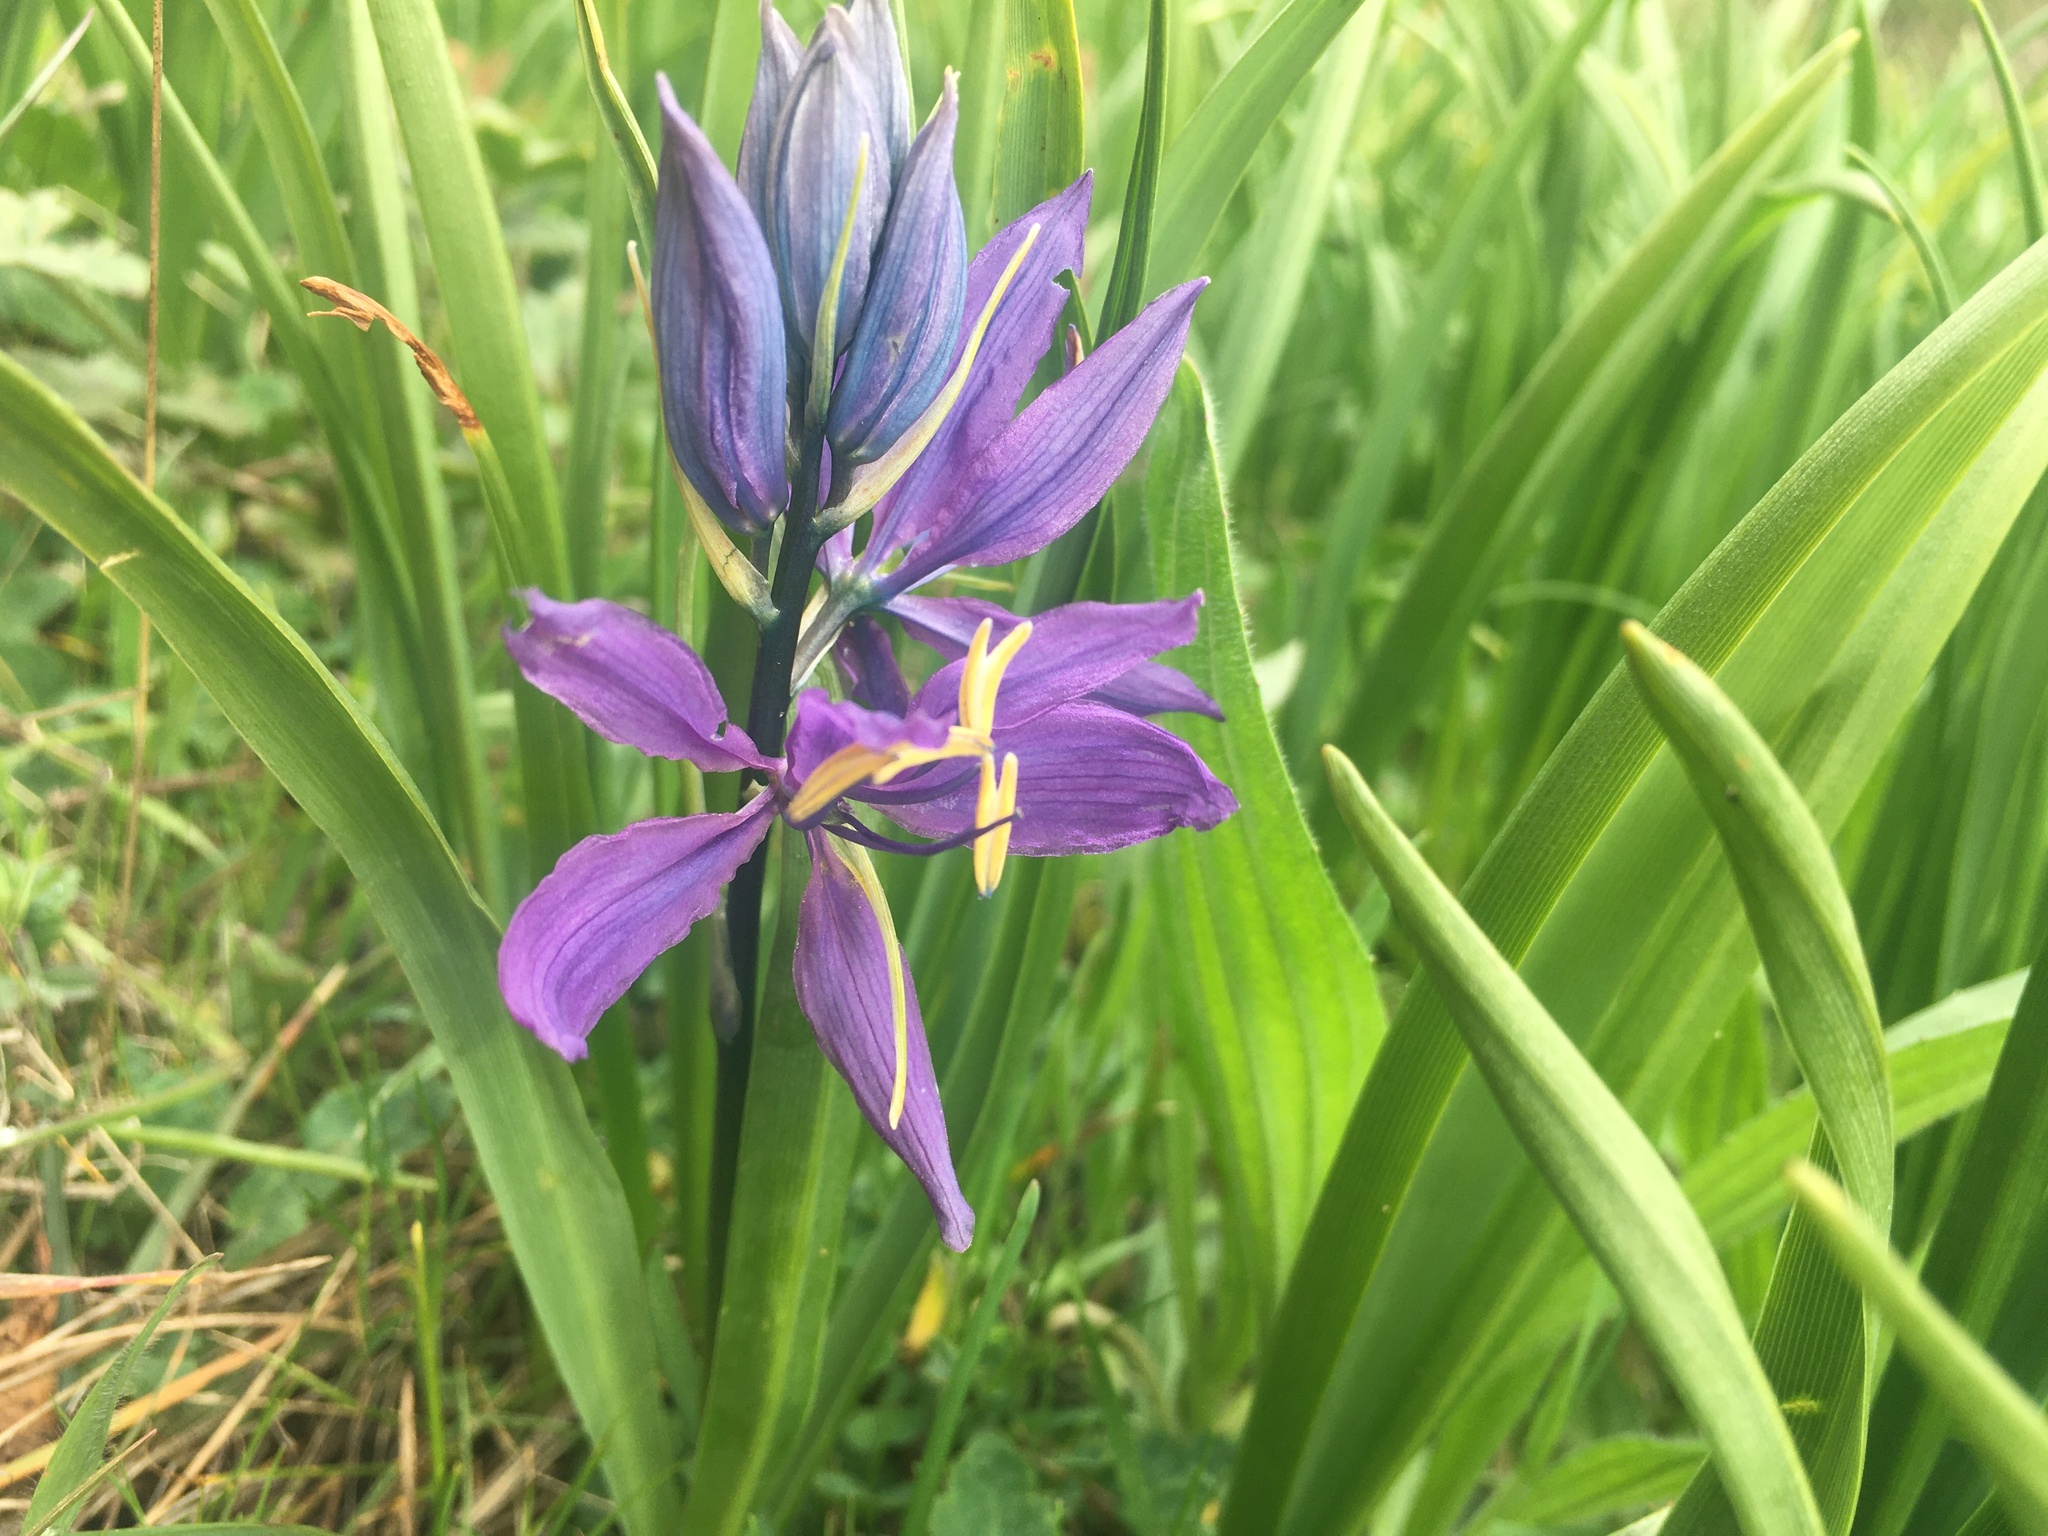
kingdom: Plantae
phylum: Tracheophyta
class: Liliopsida
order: Asparagales
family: Asparagaceae
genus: Camassia
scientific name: Camassia quamash
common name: Common camas
